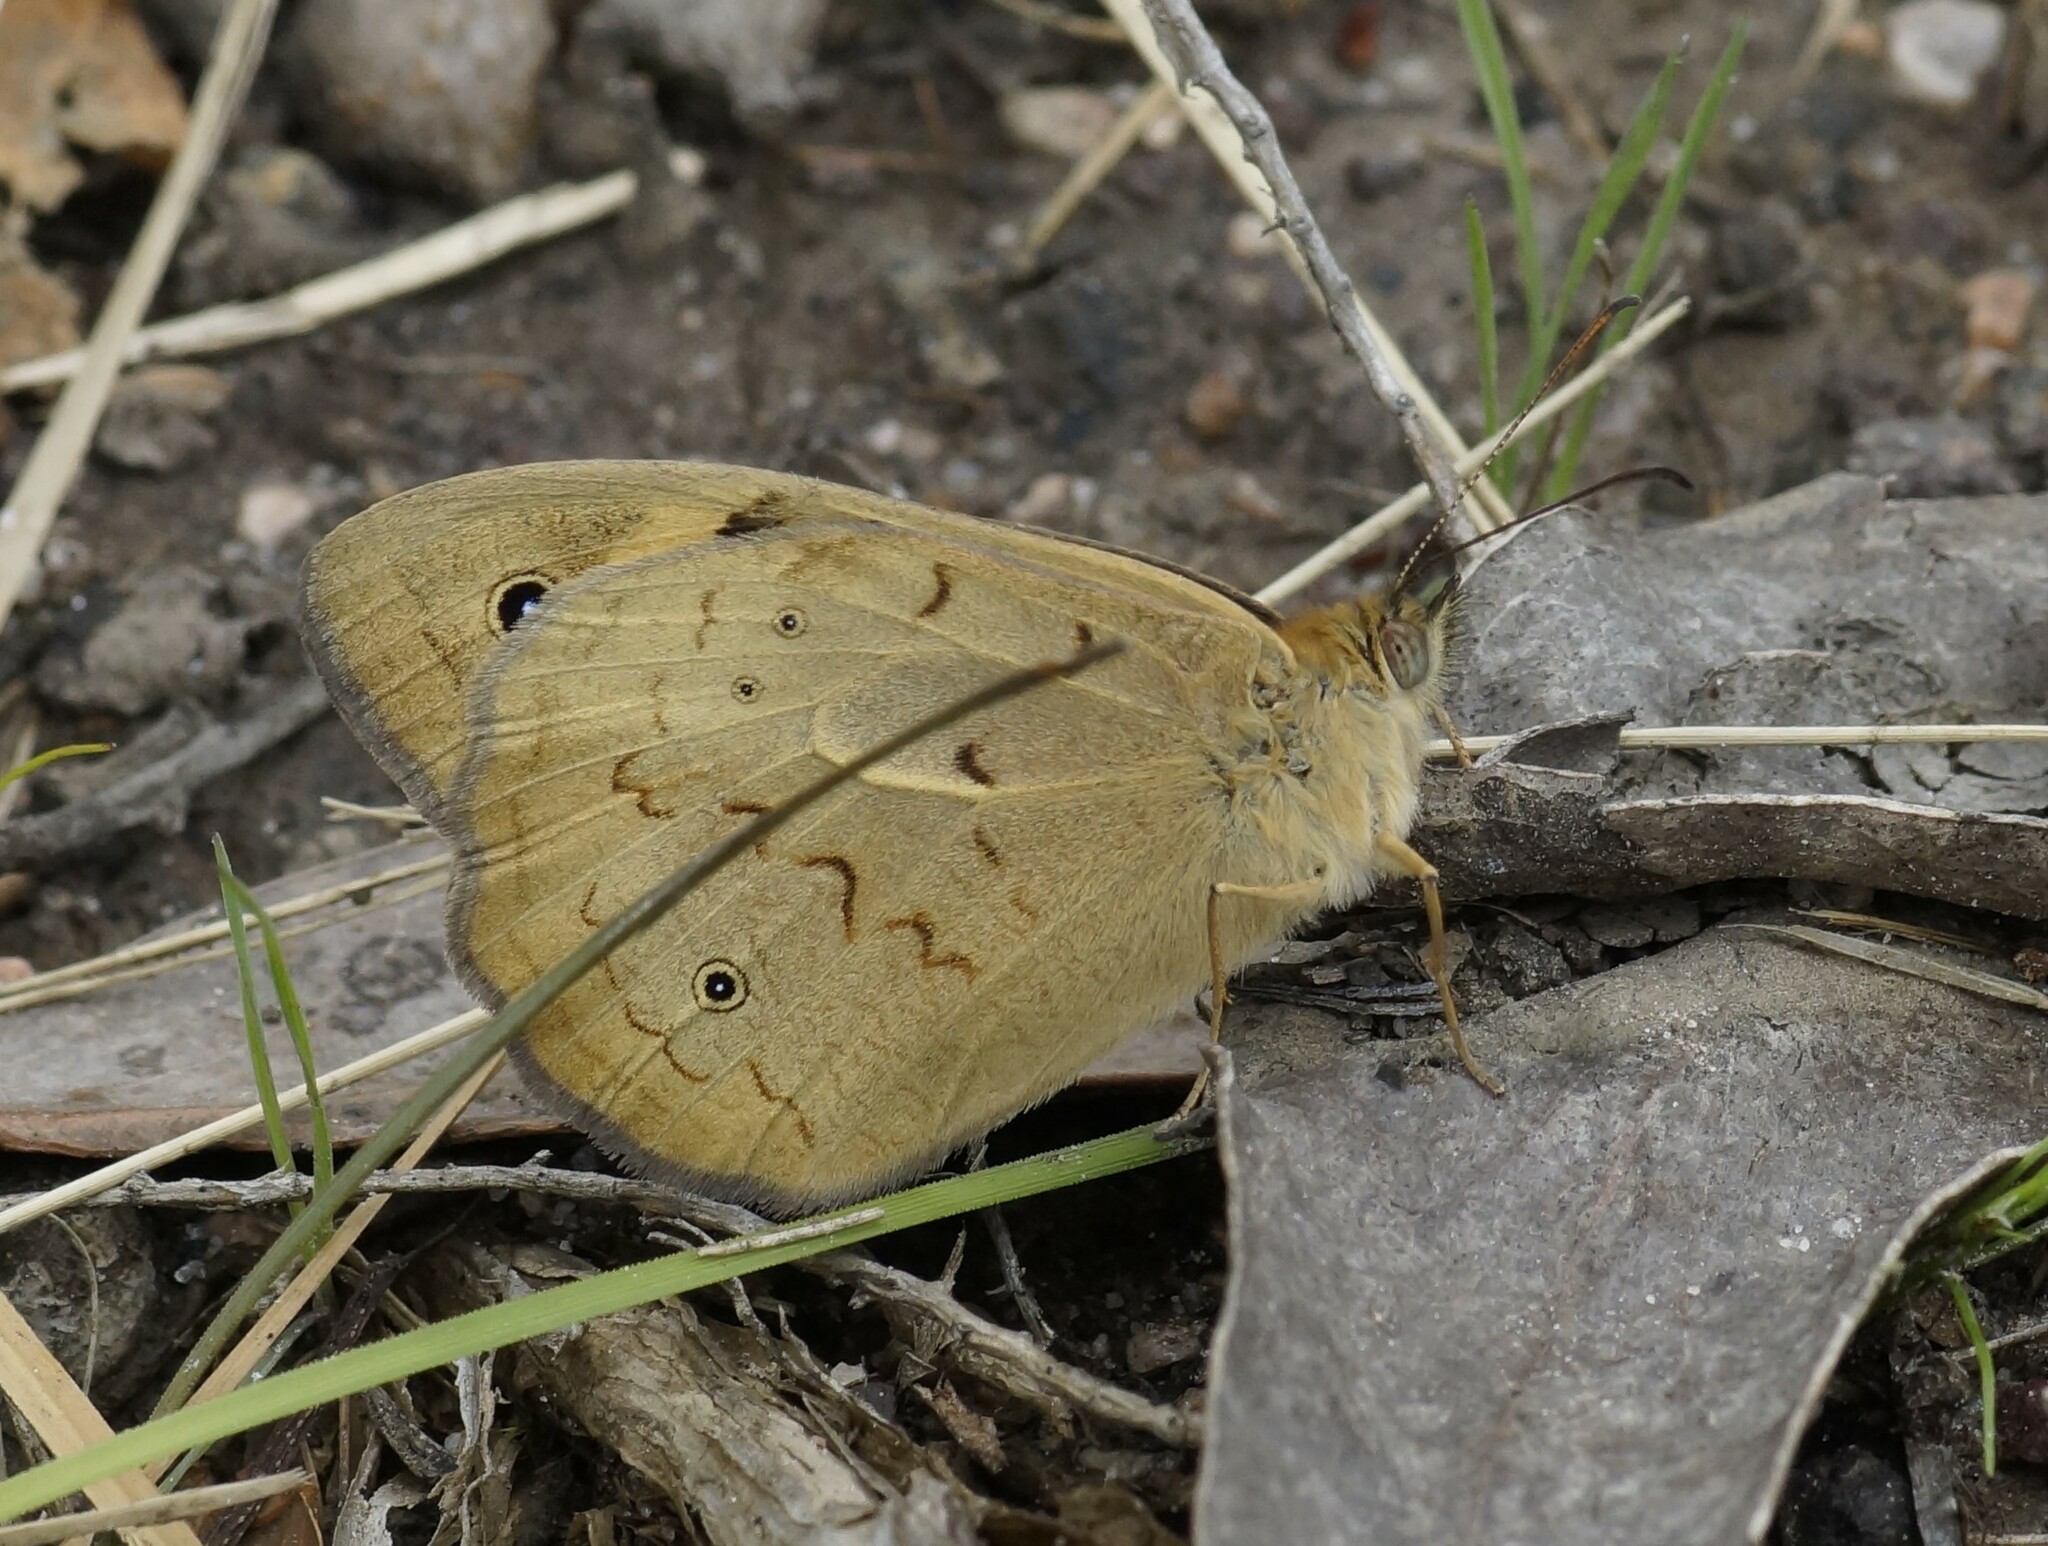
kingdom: Animalia
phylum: Arthropoda
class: Insecta
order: Lepidoptera
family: Nymphalidae
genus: Heteronympha
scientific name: Heteronympha merope
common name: Common brown
